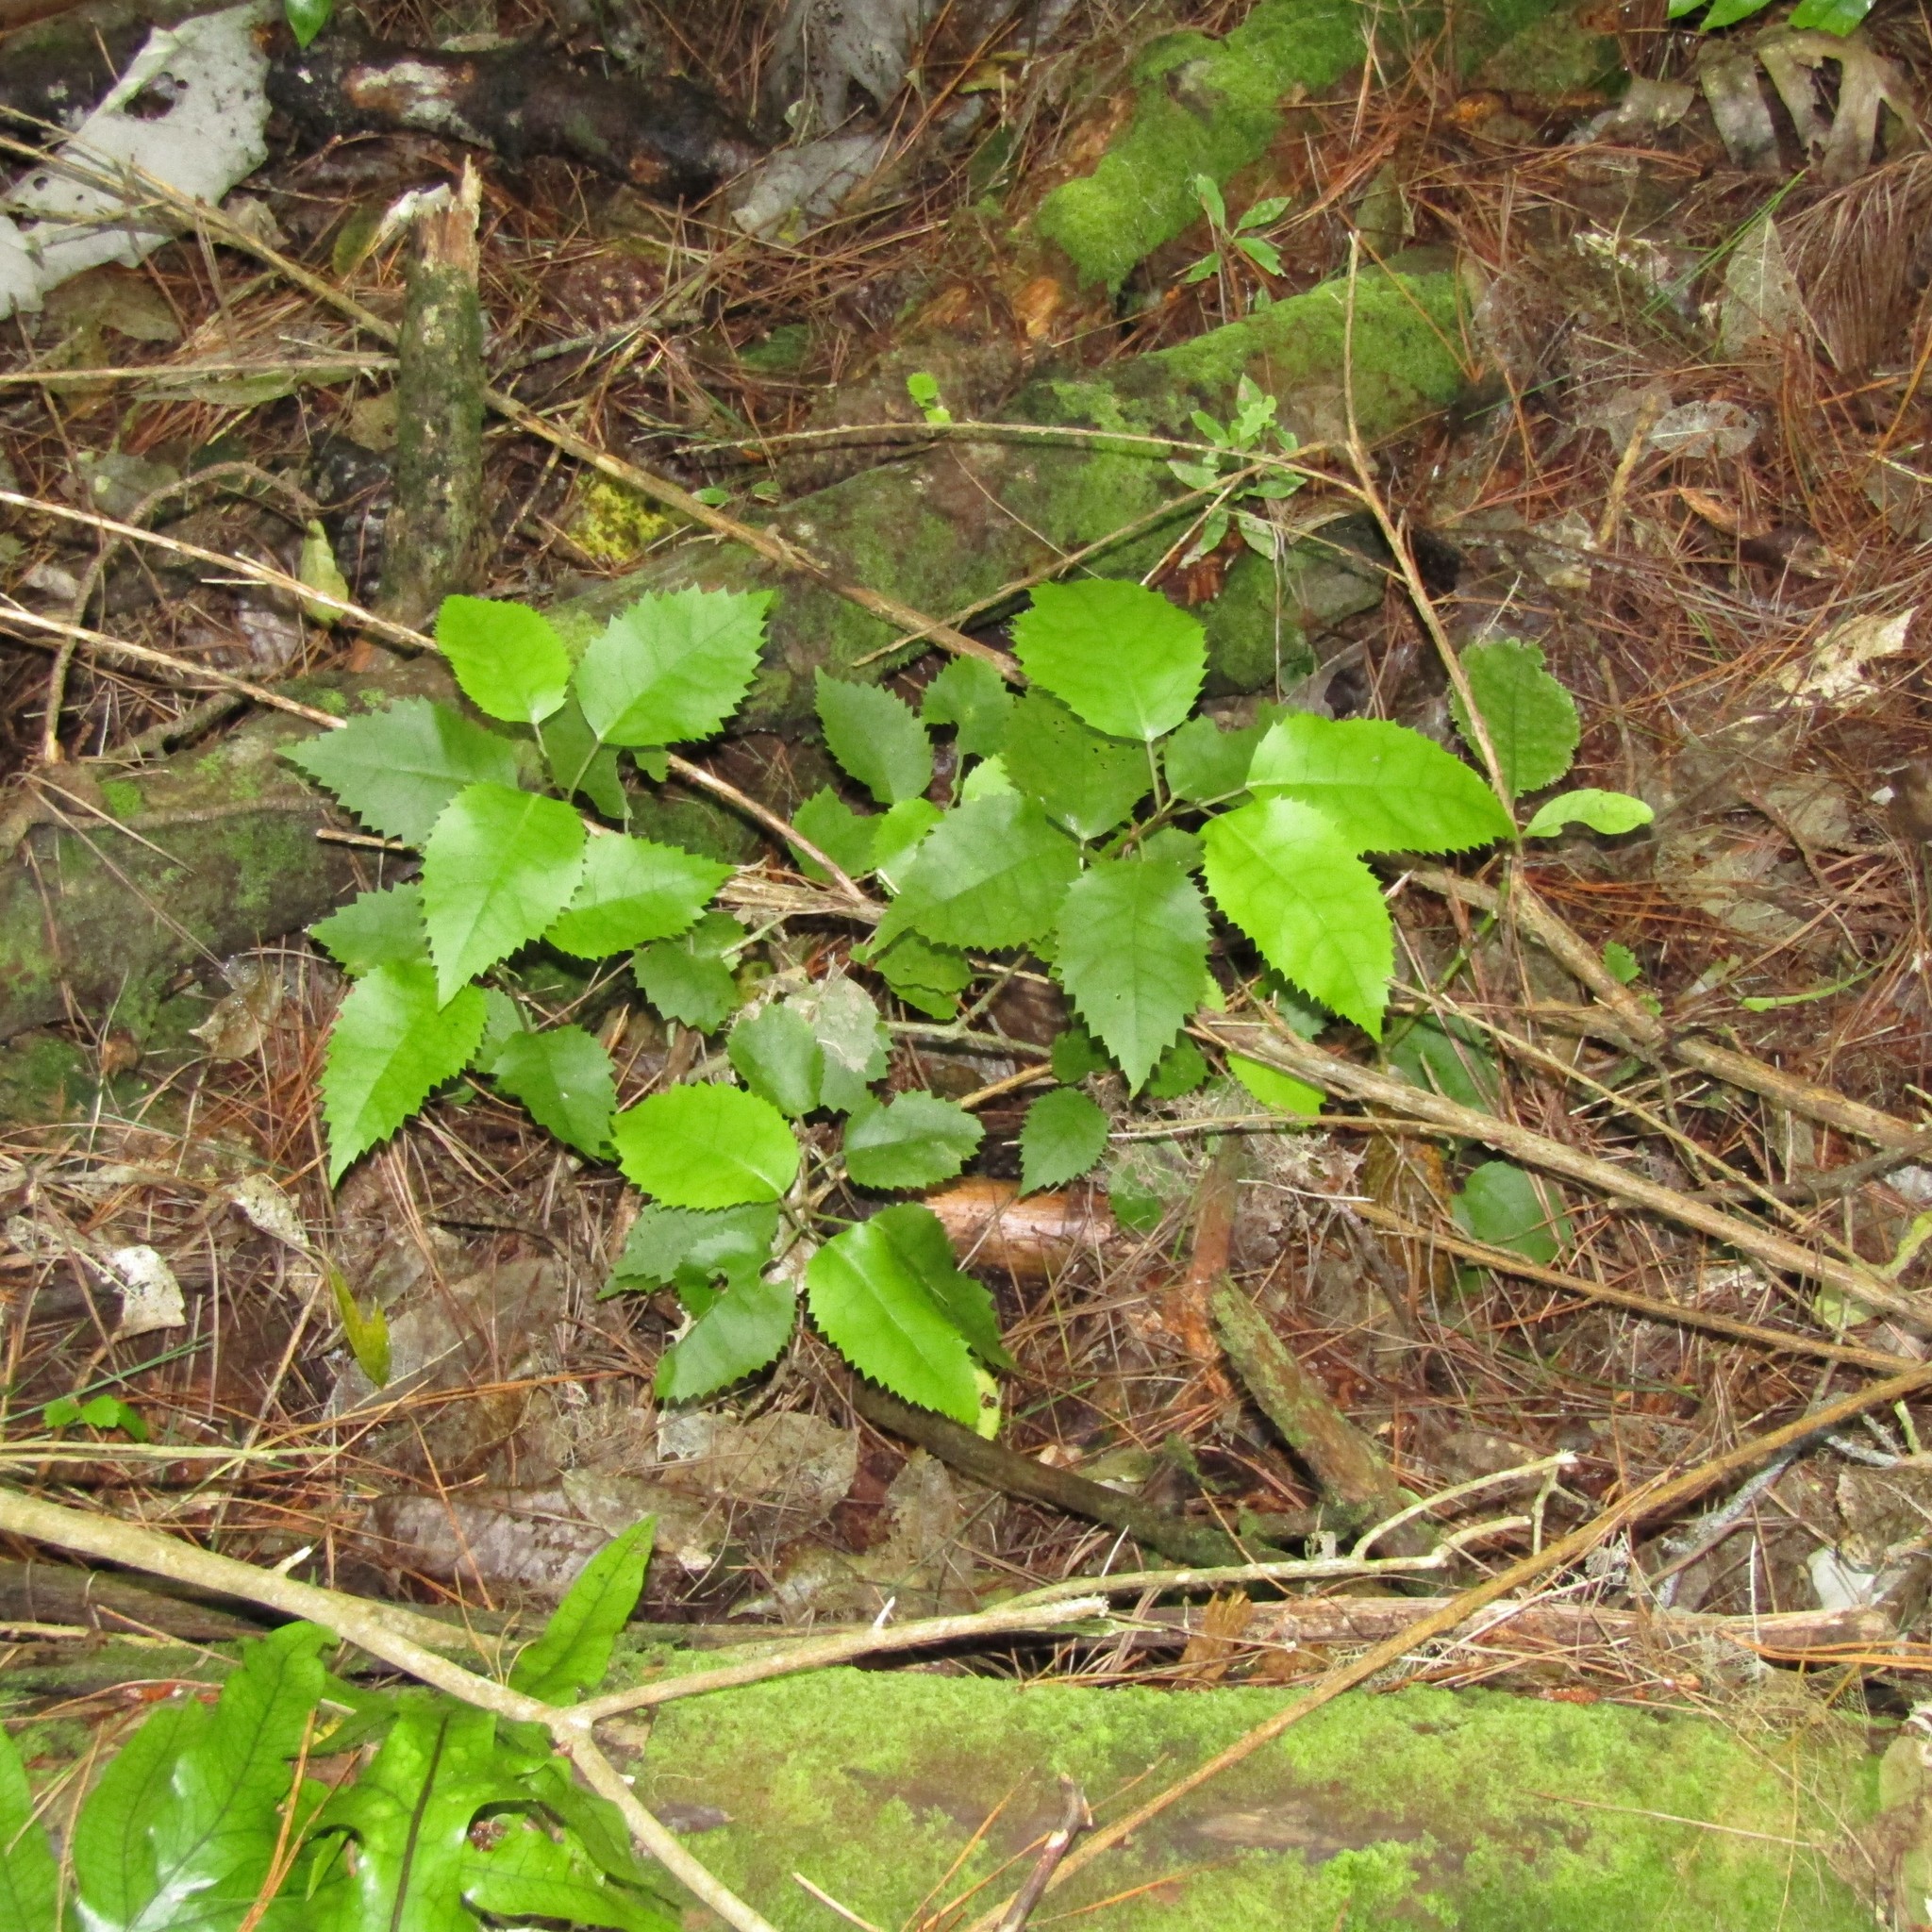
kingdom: Plantae
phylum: Tracheophyta
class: Magnoliopsida
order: Malvales
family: Malvaceae
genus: Hoheria
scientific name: Hoheria populnea
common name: Lacebark
